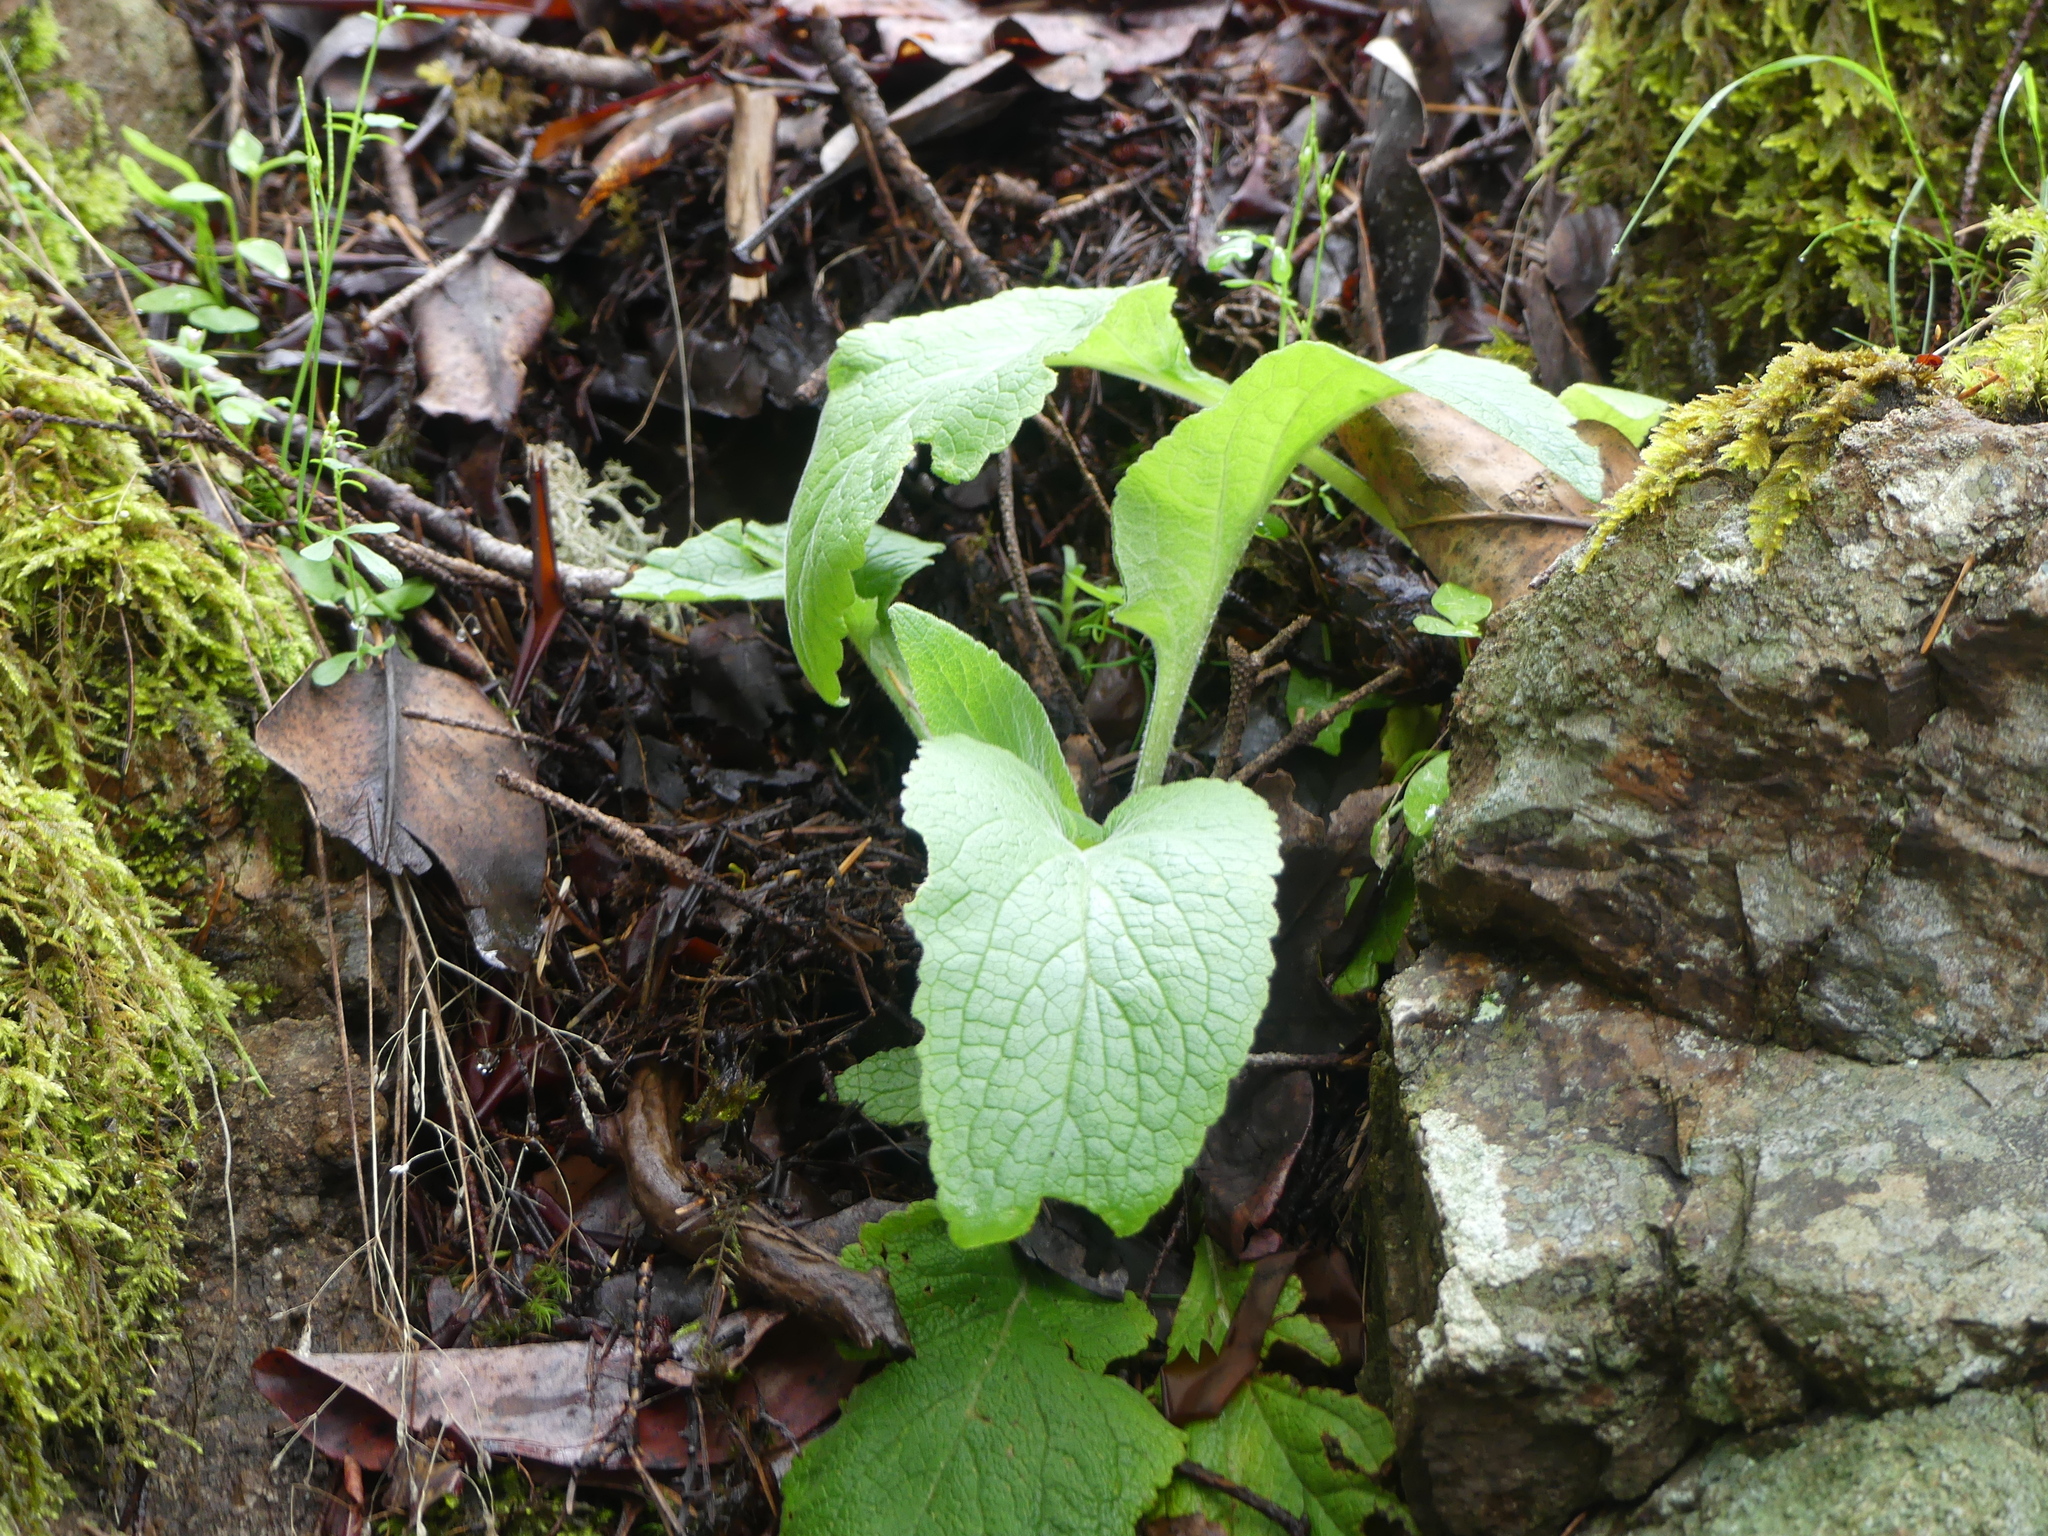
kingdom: Plantae
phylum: Tracheophyta
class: Magnoliopsida
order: Lamiales
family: Plantaginaceae
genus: Digitalis
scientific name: Digitalis purpurea
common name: Foxglove
